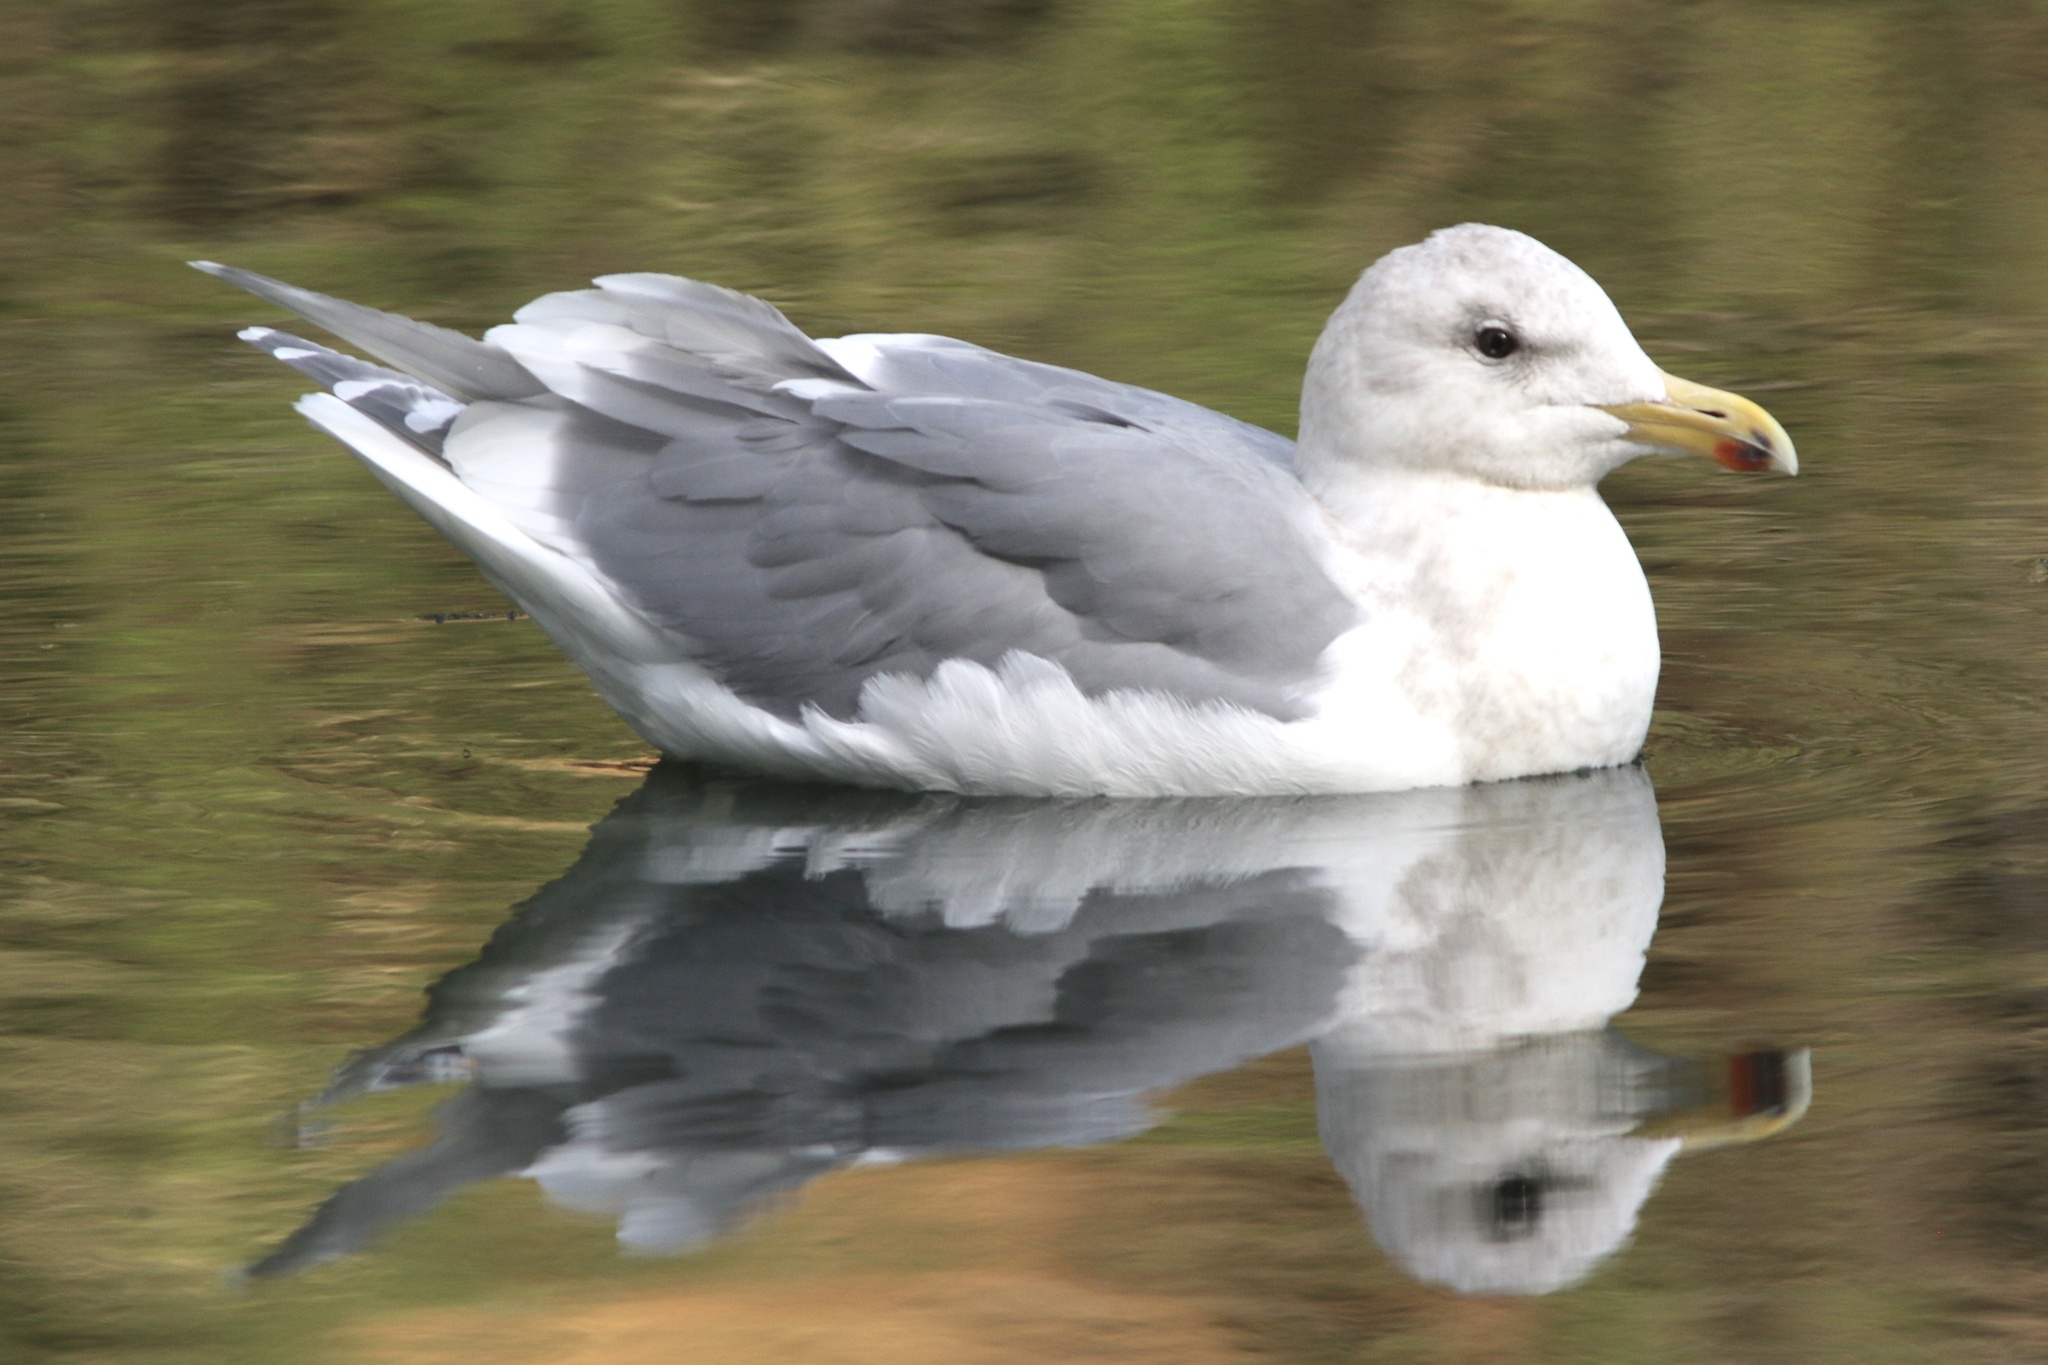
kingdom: Animalia
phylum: Chordata
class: Aves
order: Charadriiformes
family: Laridae
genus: Larus
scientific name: Larus
